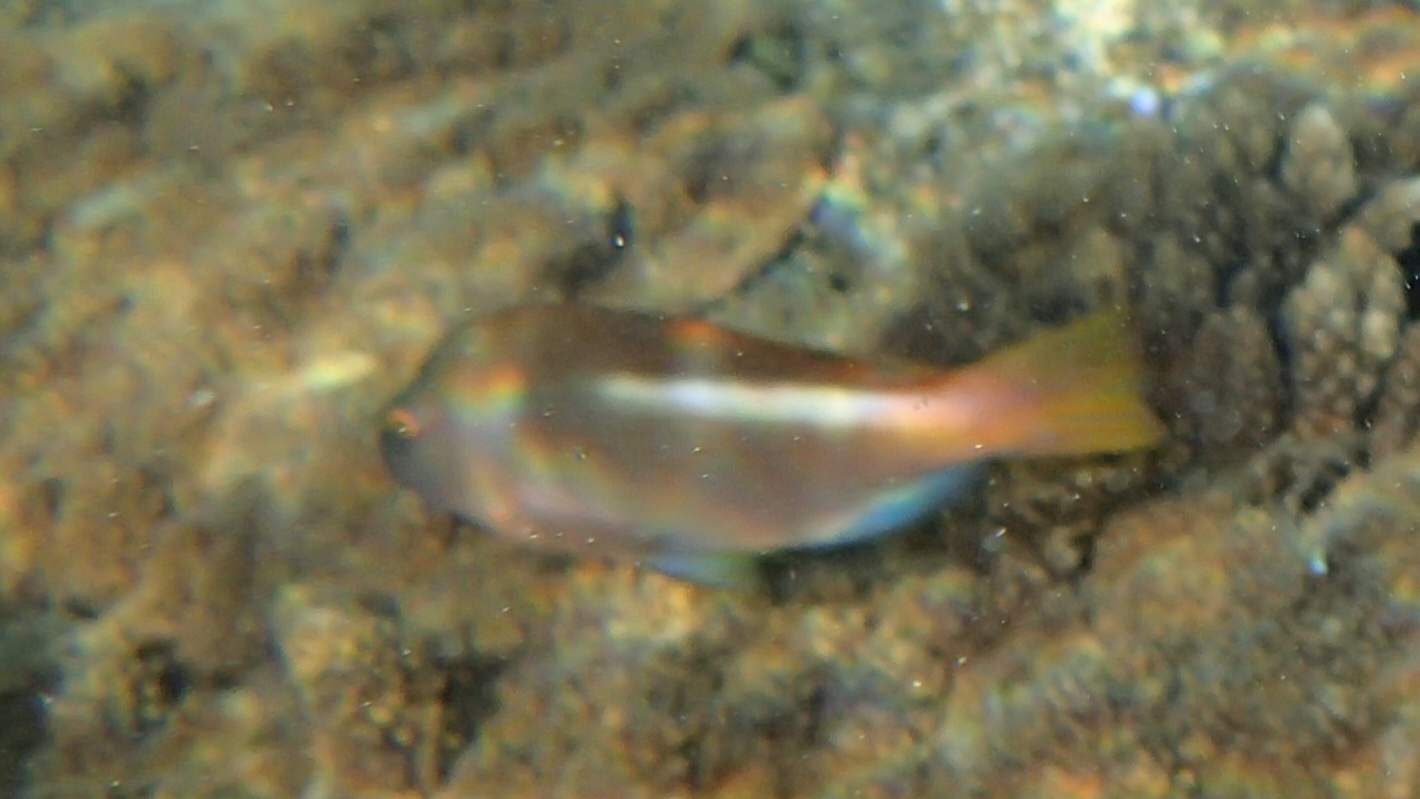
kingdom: Animalia
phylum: Chordata
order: Perciformes
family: Cirrhitidae
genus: Paracirrhites
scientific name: Paracirrhites arcatus
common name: Arc-eye hawkfish
